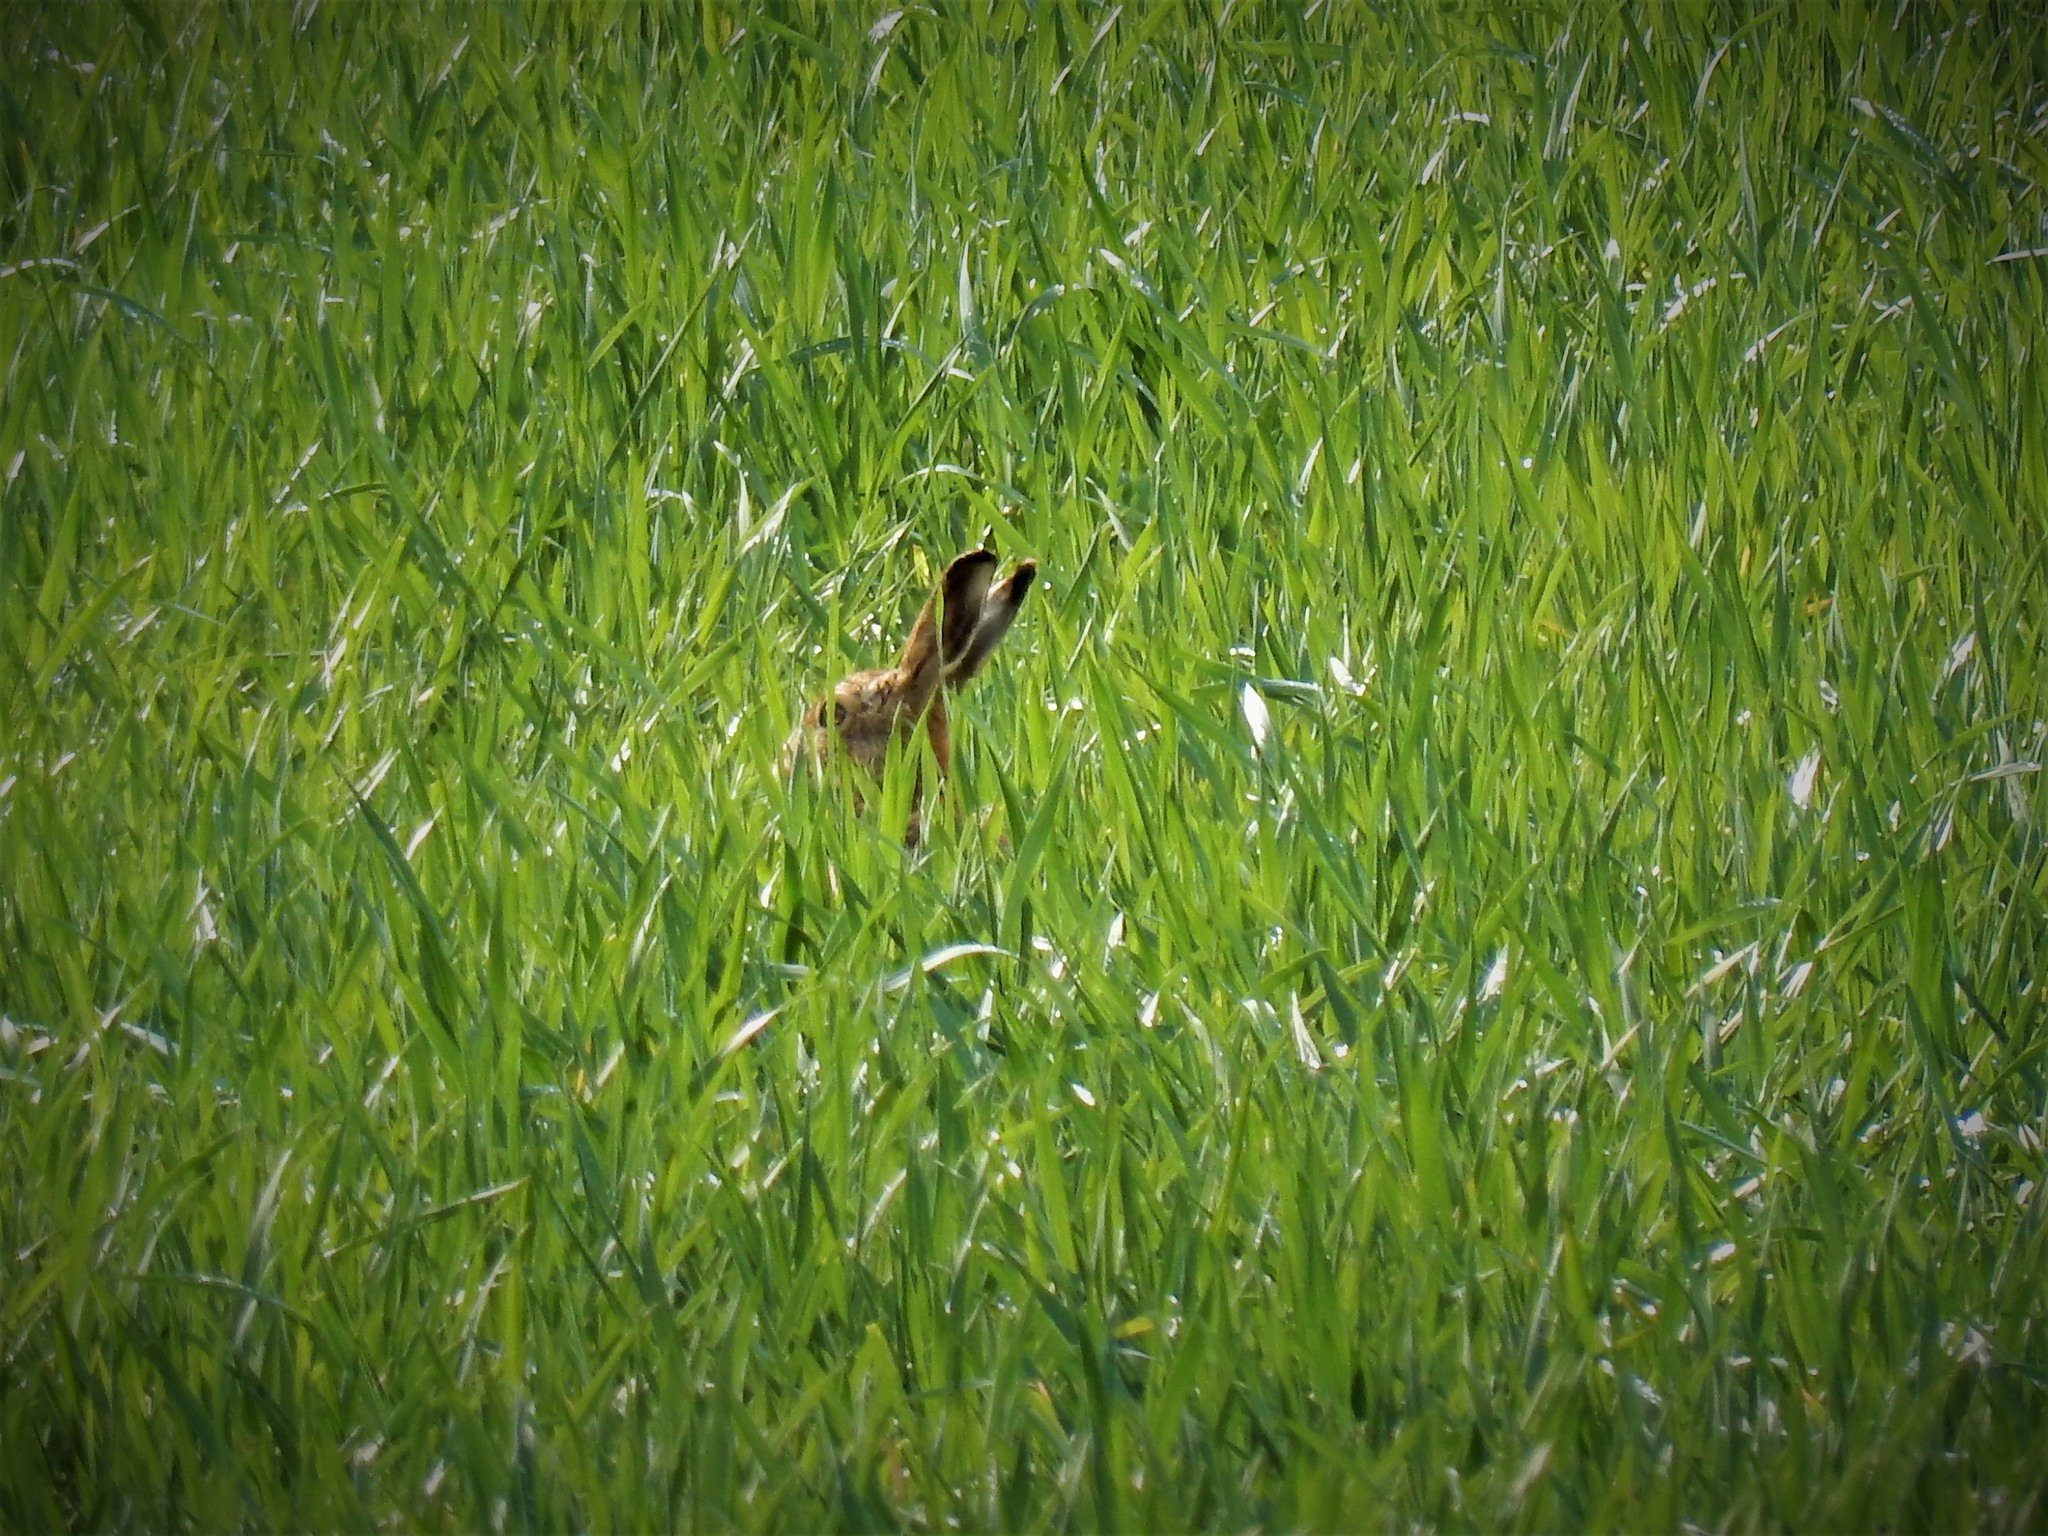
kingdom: Animalia
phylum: Chordata
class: Mammalia
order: Lagomorpha
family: Leporidae
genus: Lepus
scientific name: Lepus europaeus
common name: European hare
